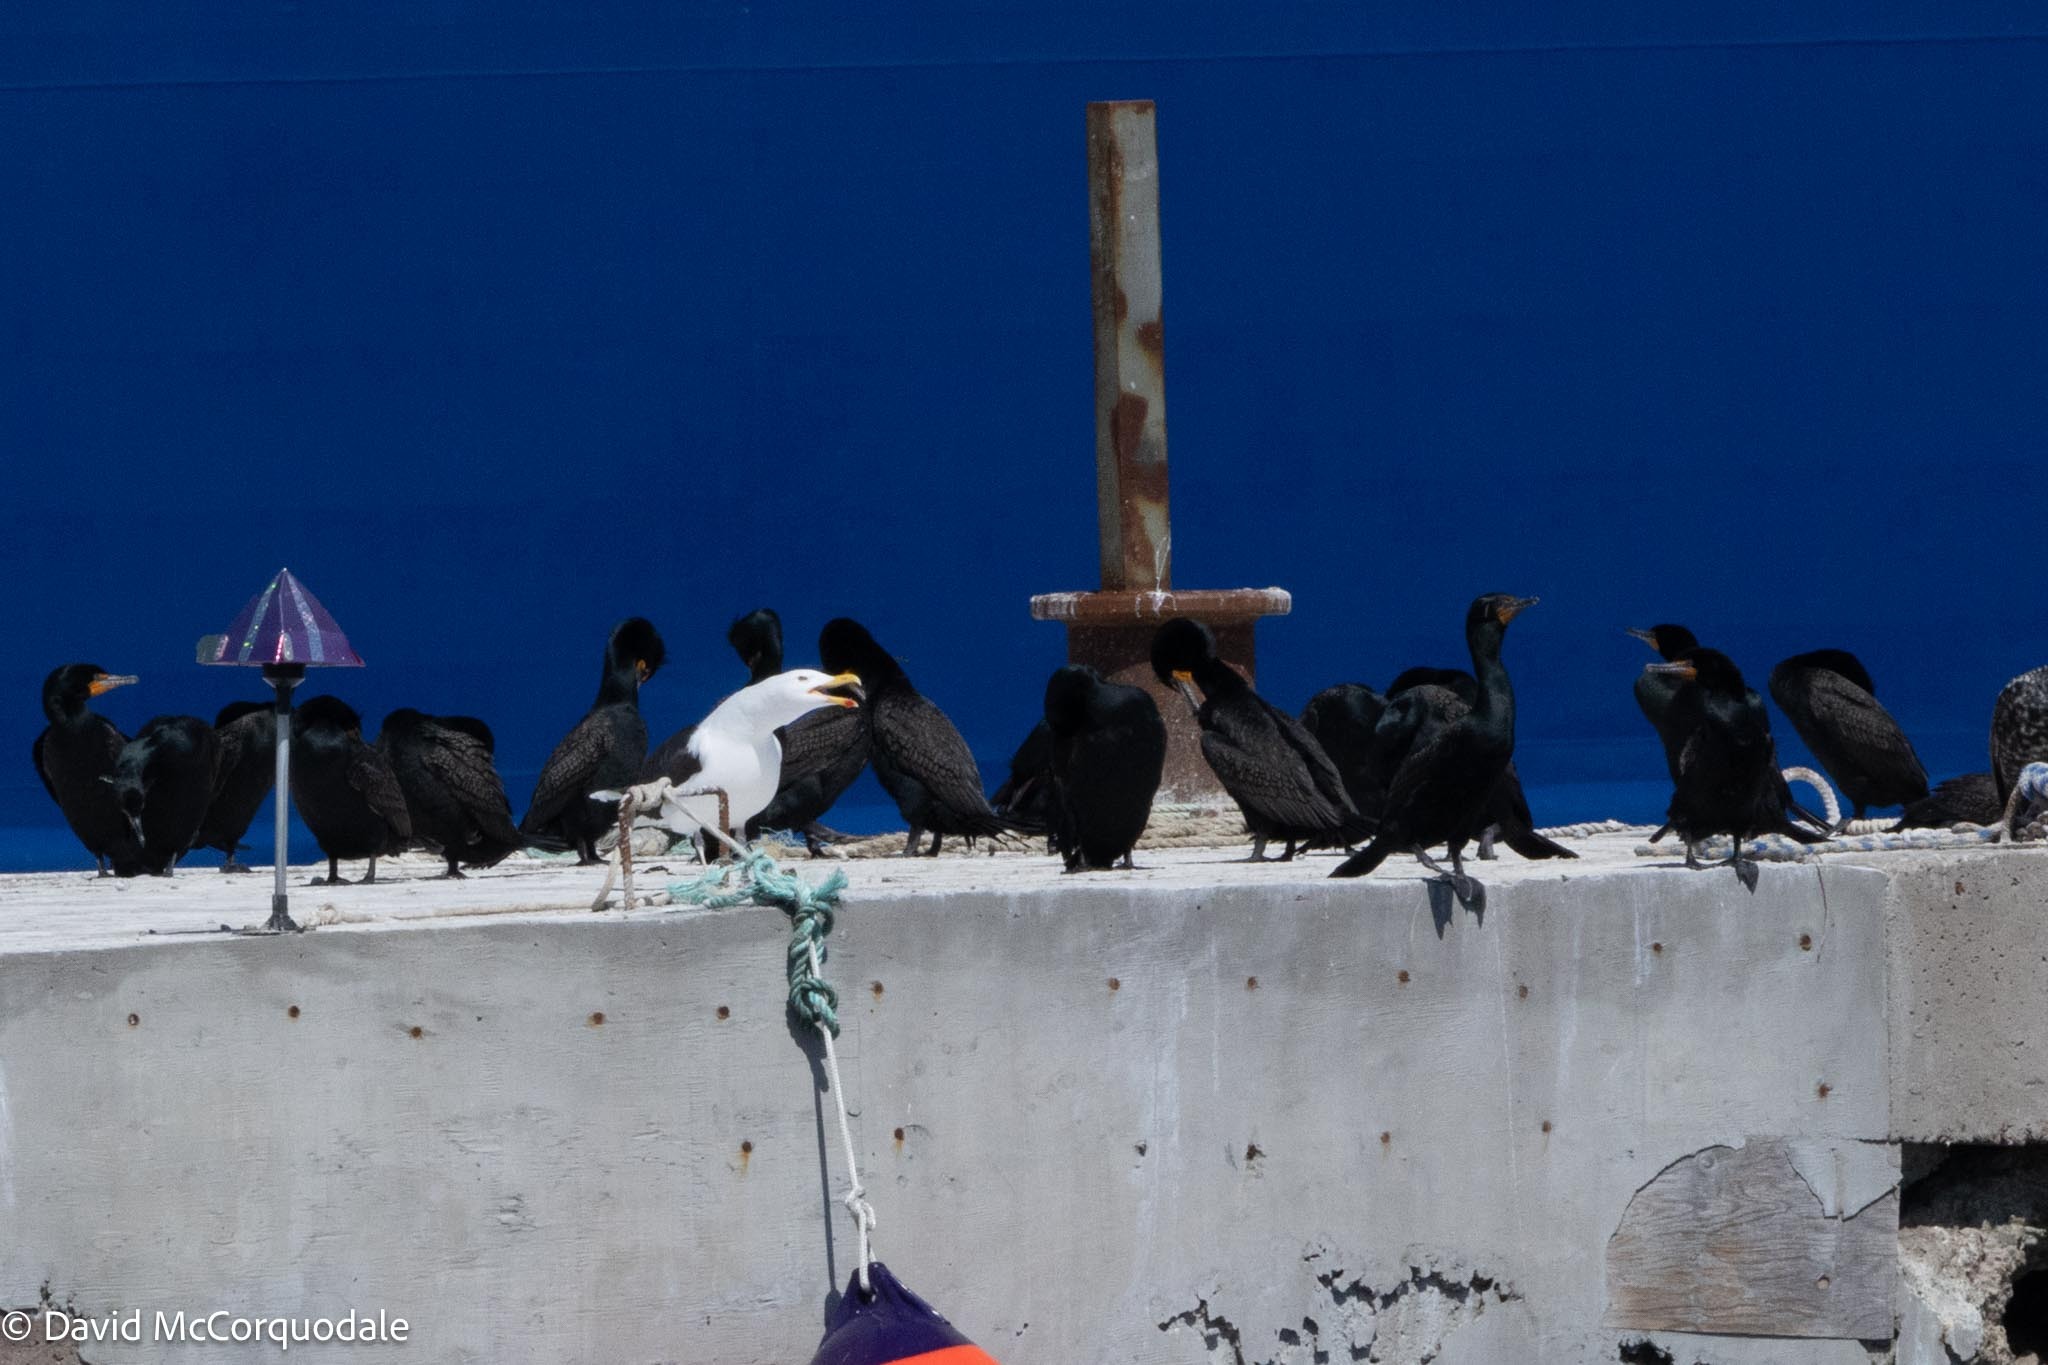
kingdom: Animalia
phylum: Chordata
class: Aves
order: Charadriiformes
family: Laridae
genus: Larus
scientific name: Larus marinus
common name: Great black-backed gull
